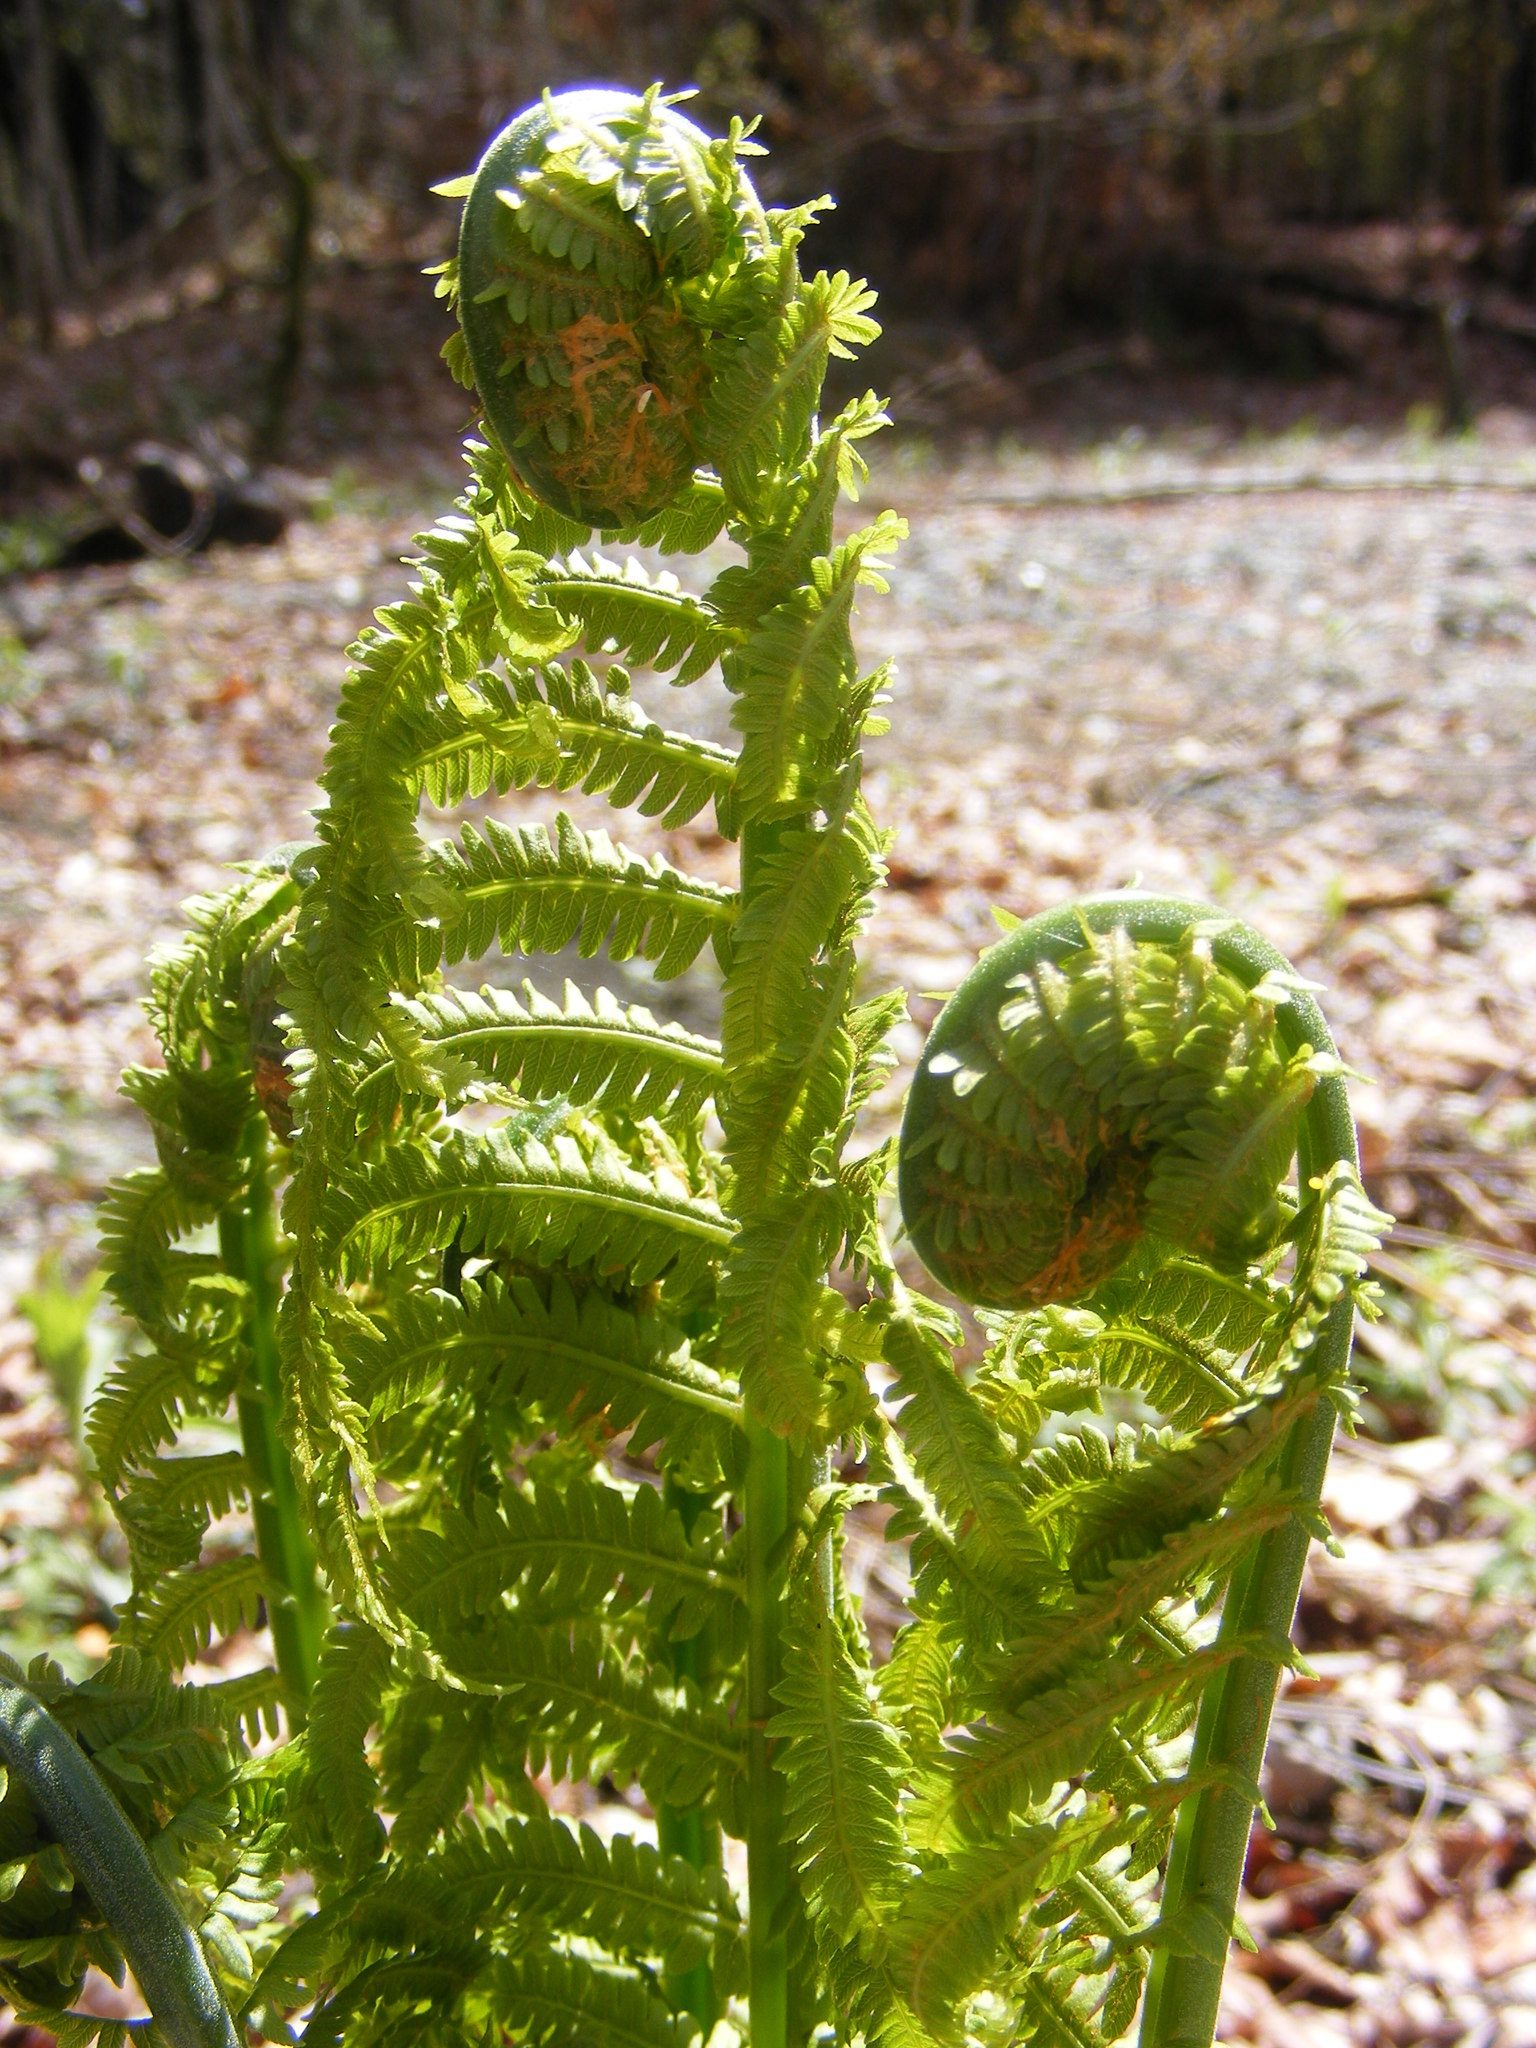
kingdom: Plantae
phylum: Tracheophyta
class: Polypodiopsida
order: Polypodiales
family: Onocleaceae
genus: Matteuccia
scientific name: Matteuccia struthiopteris
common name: Ostrich fern
